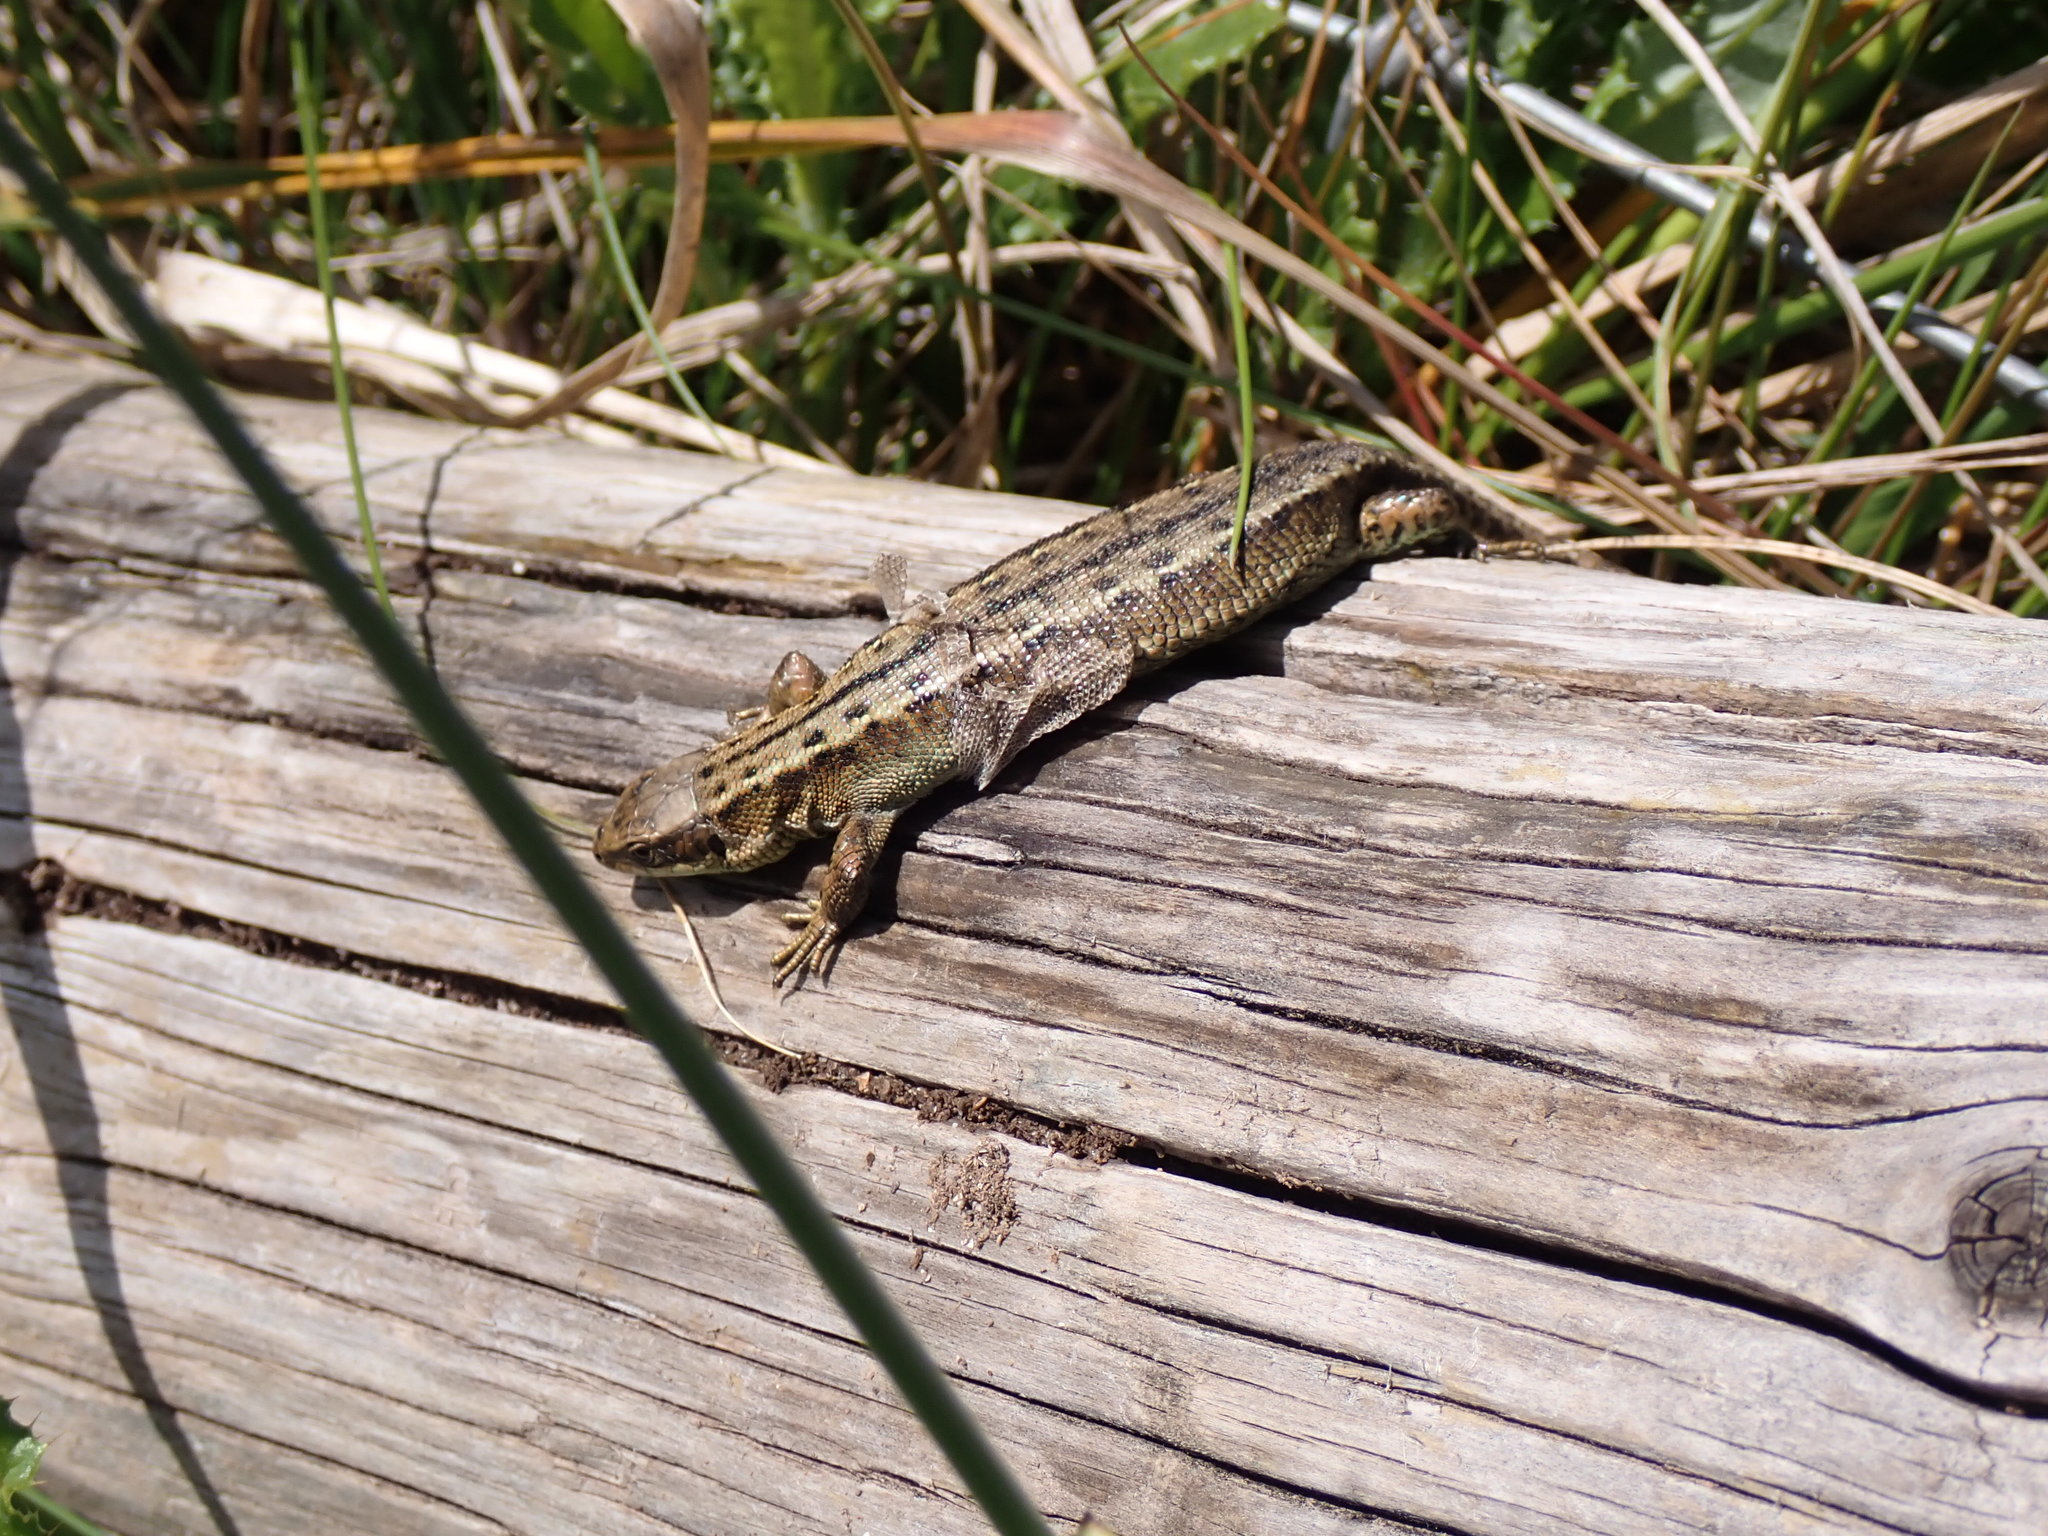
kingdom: Animalia
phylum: Chordata
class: Squamata
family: Lacertidae
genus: Zootoca
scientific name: Zootoca vivipara
